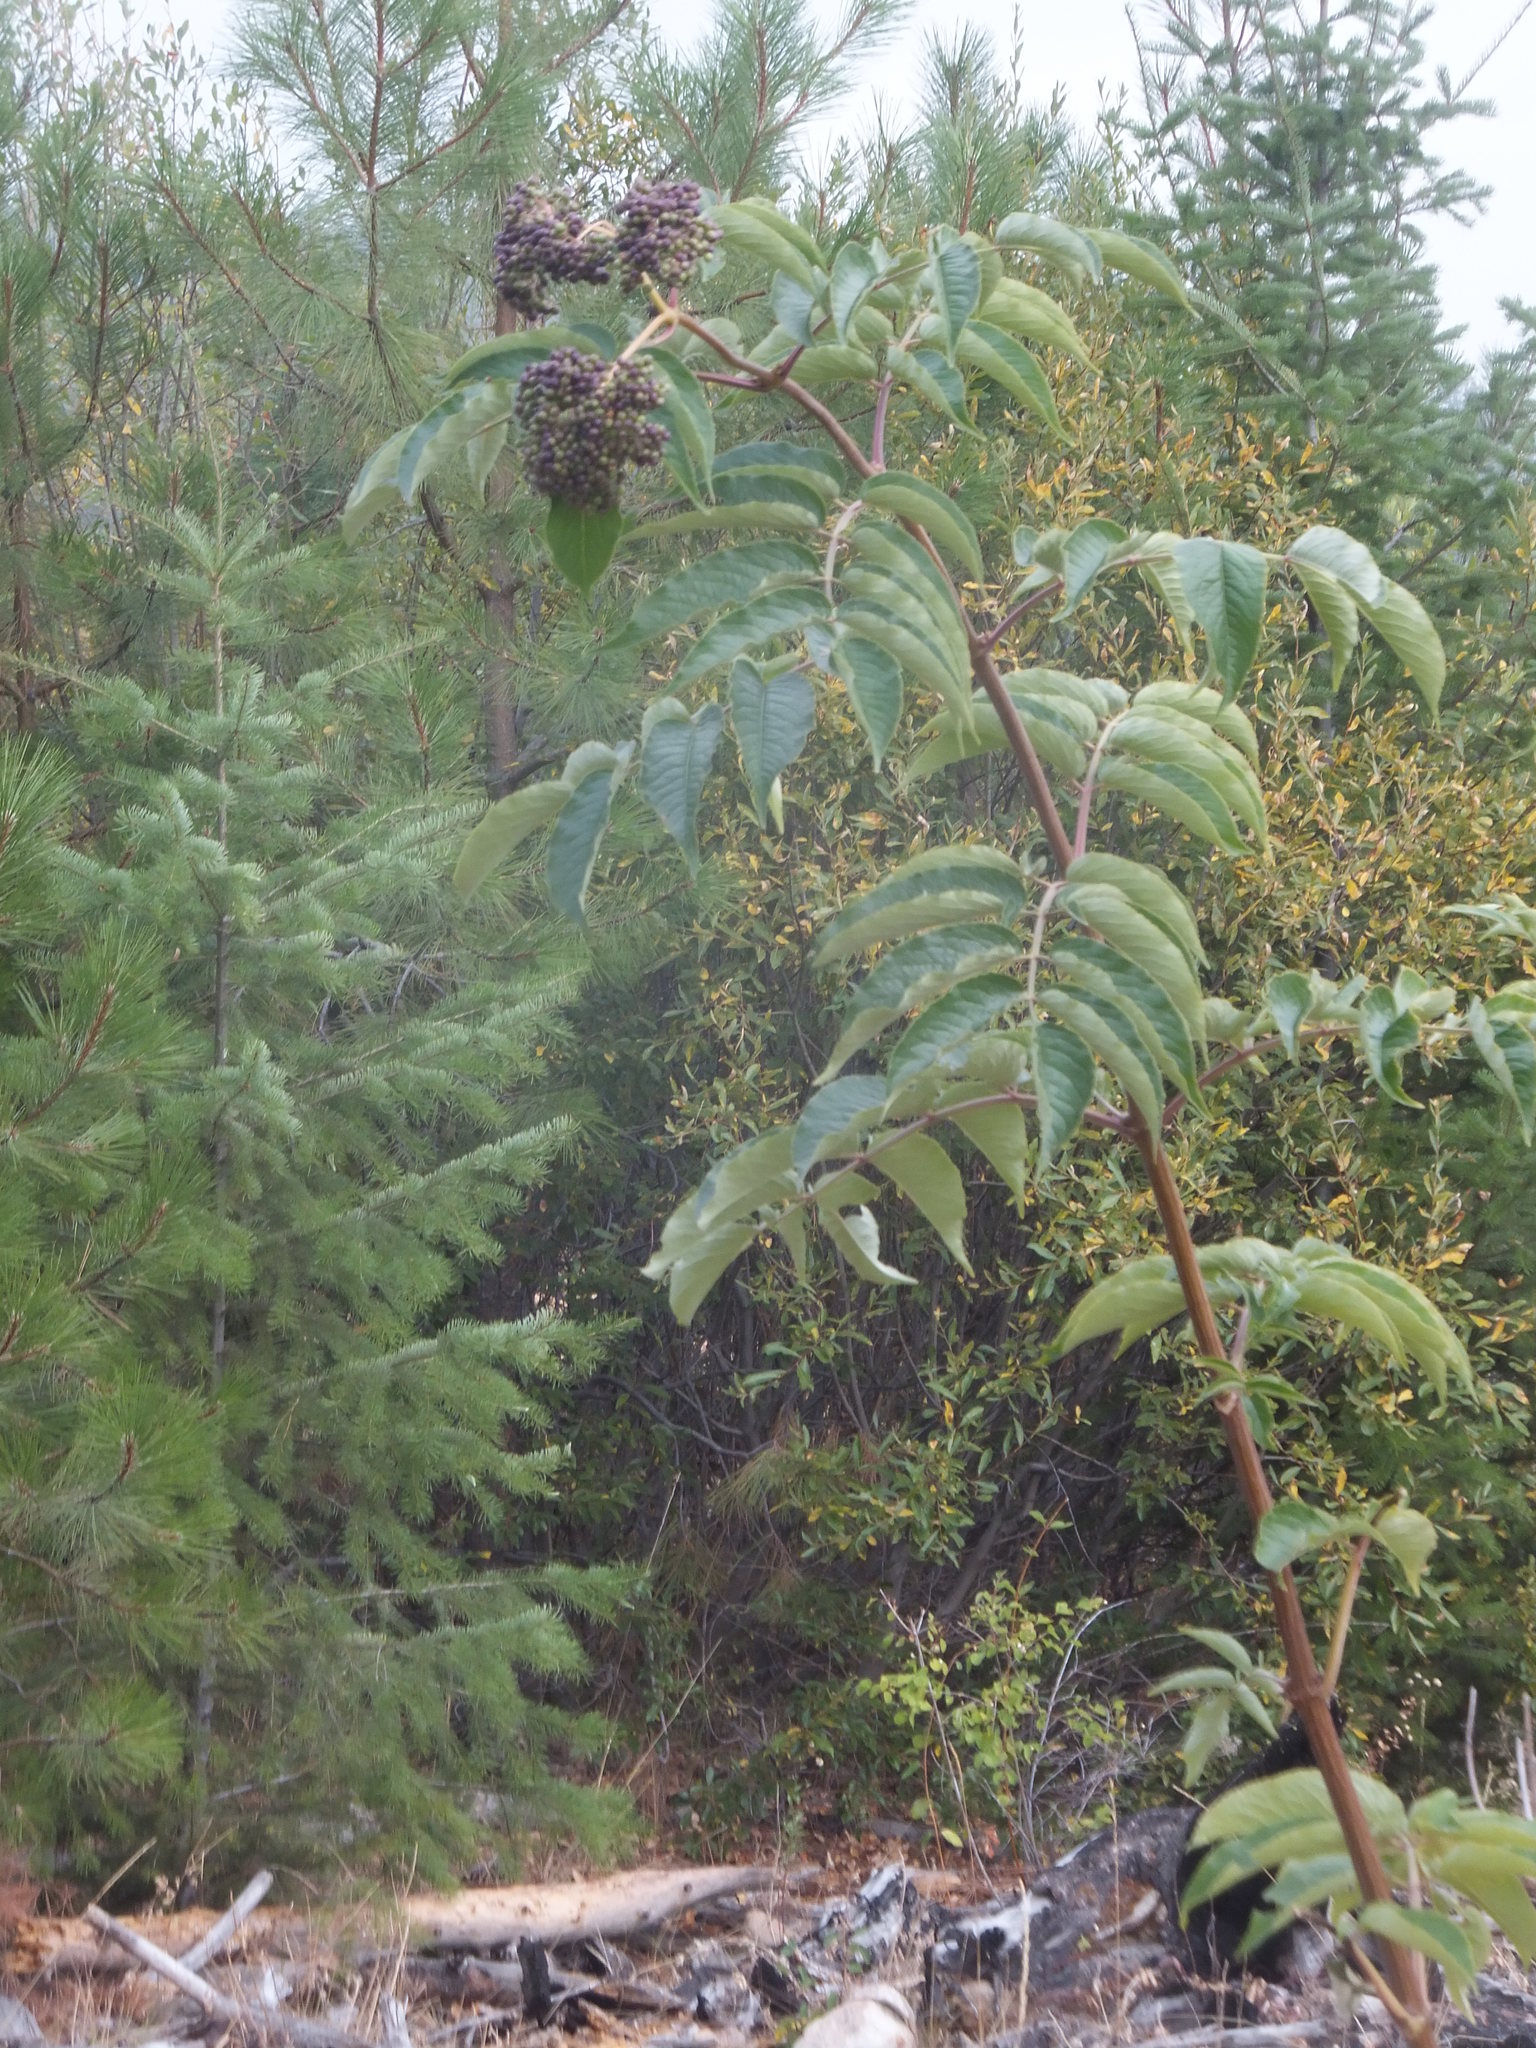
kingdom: Plantae
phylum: Tracheophyta
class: Magnoliopsida
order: Dipsacales
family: Viburnaceae
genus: Sambucus
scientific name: Sambucus racemosa
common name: Red-berried elder
